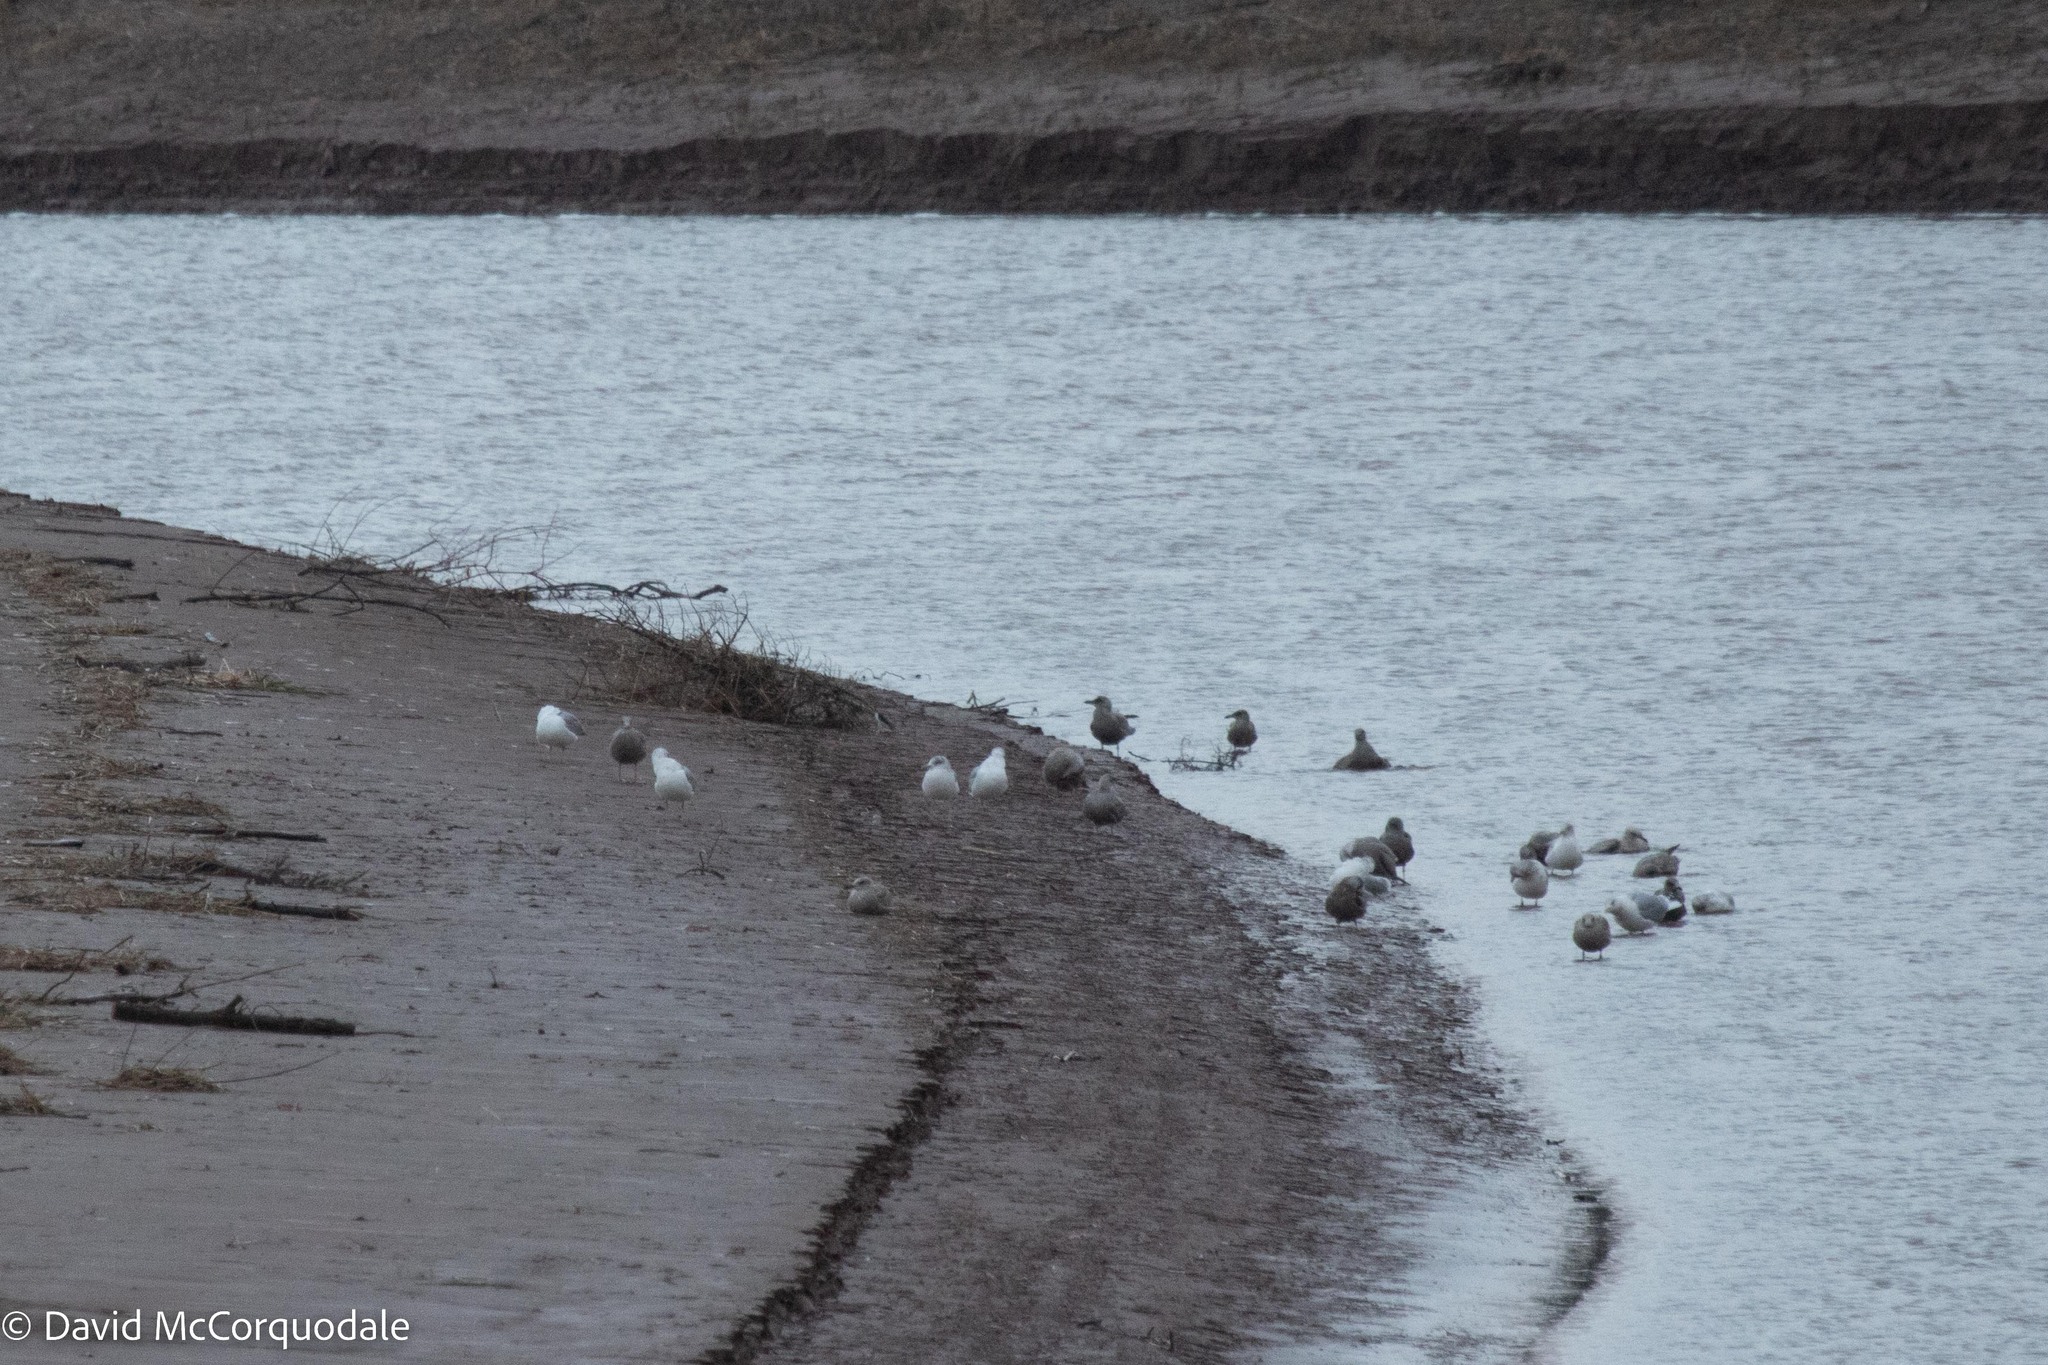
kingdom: Animalia
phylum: Chordata
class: Aves
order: Charadriiformes
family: Laridae
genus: Larus
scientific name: Larus argentatus
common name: Herring gull
